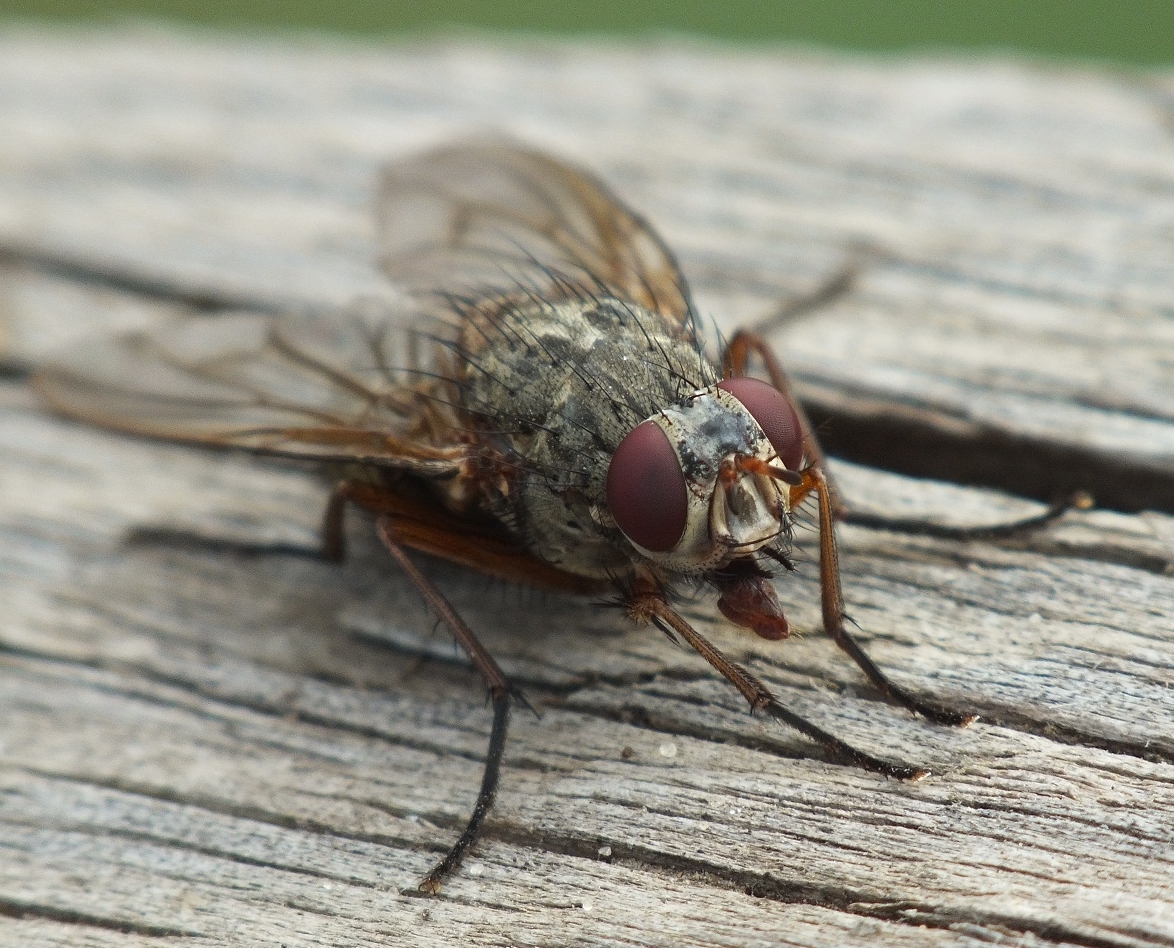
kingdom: Animalia
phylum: Arthropoda
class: Insecta
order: Diptera
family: Muscidae
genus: Phaonia
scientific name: Phaonia valida
